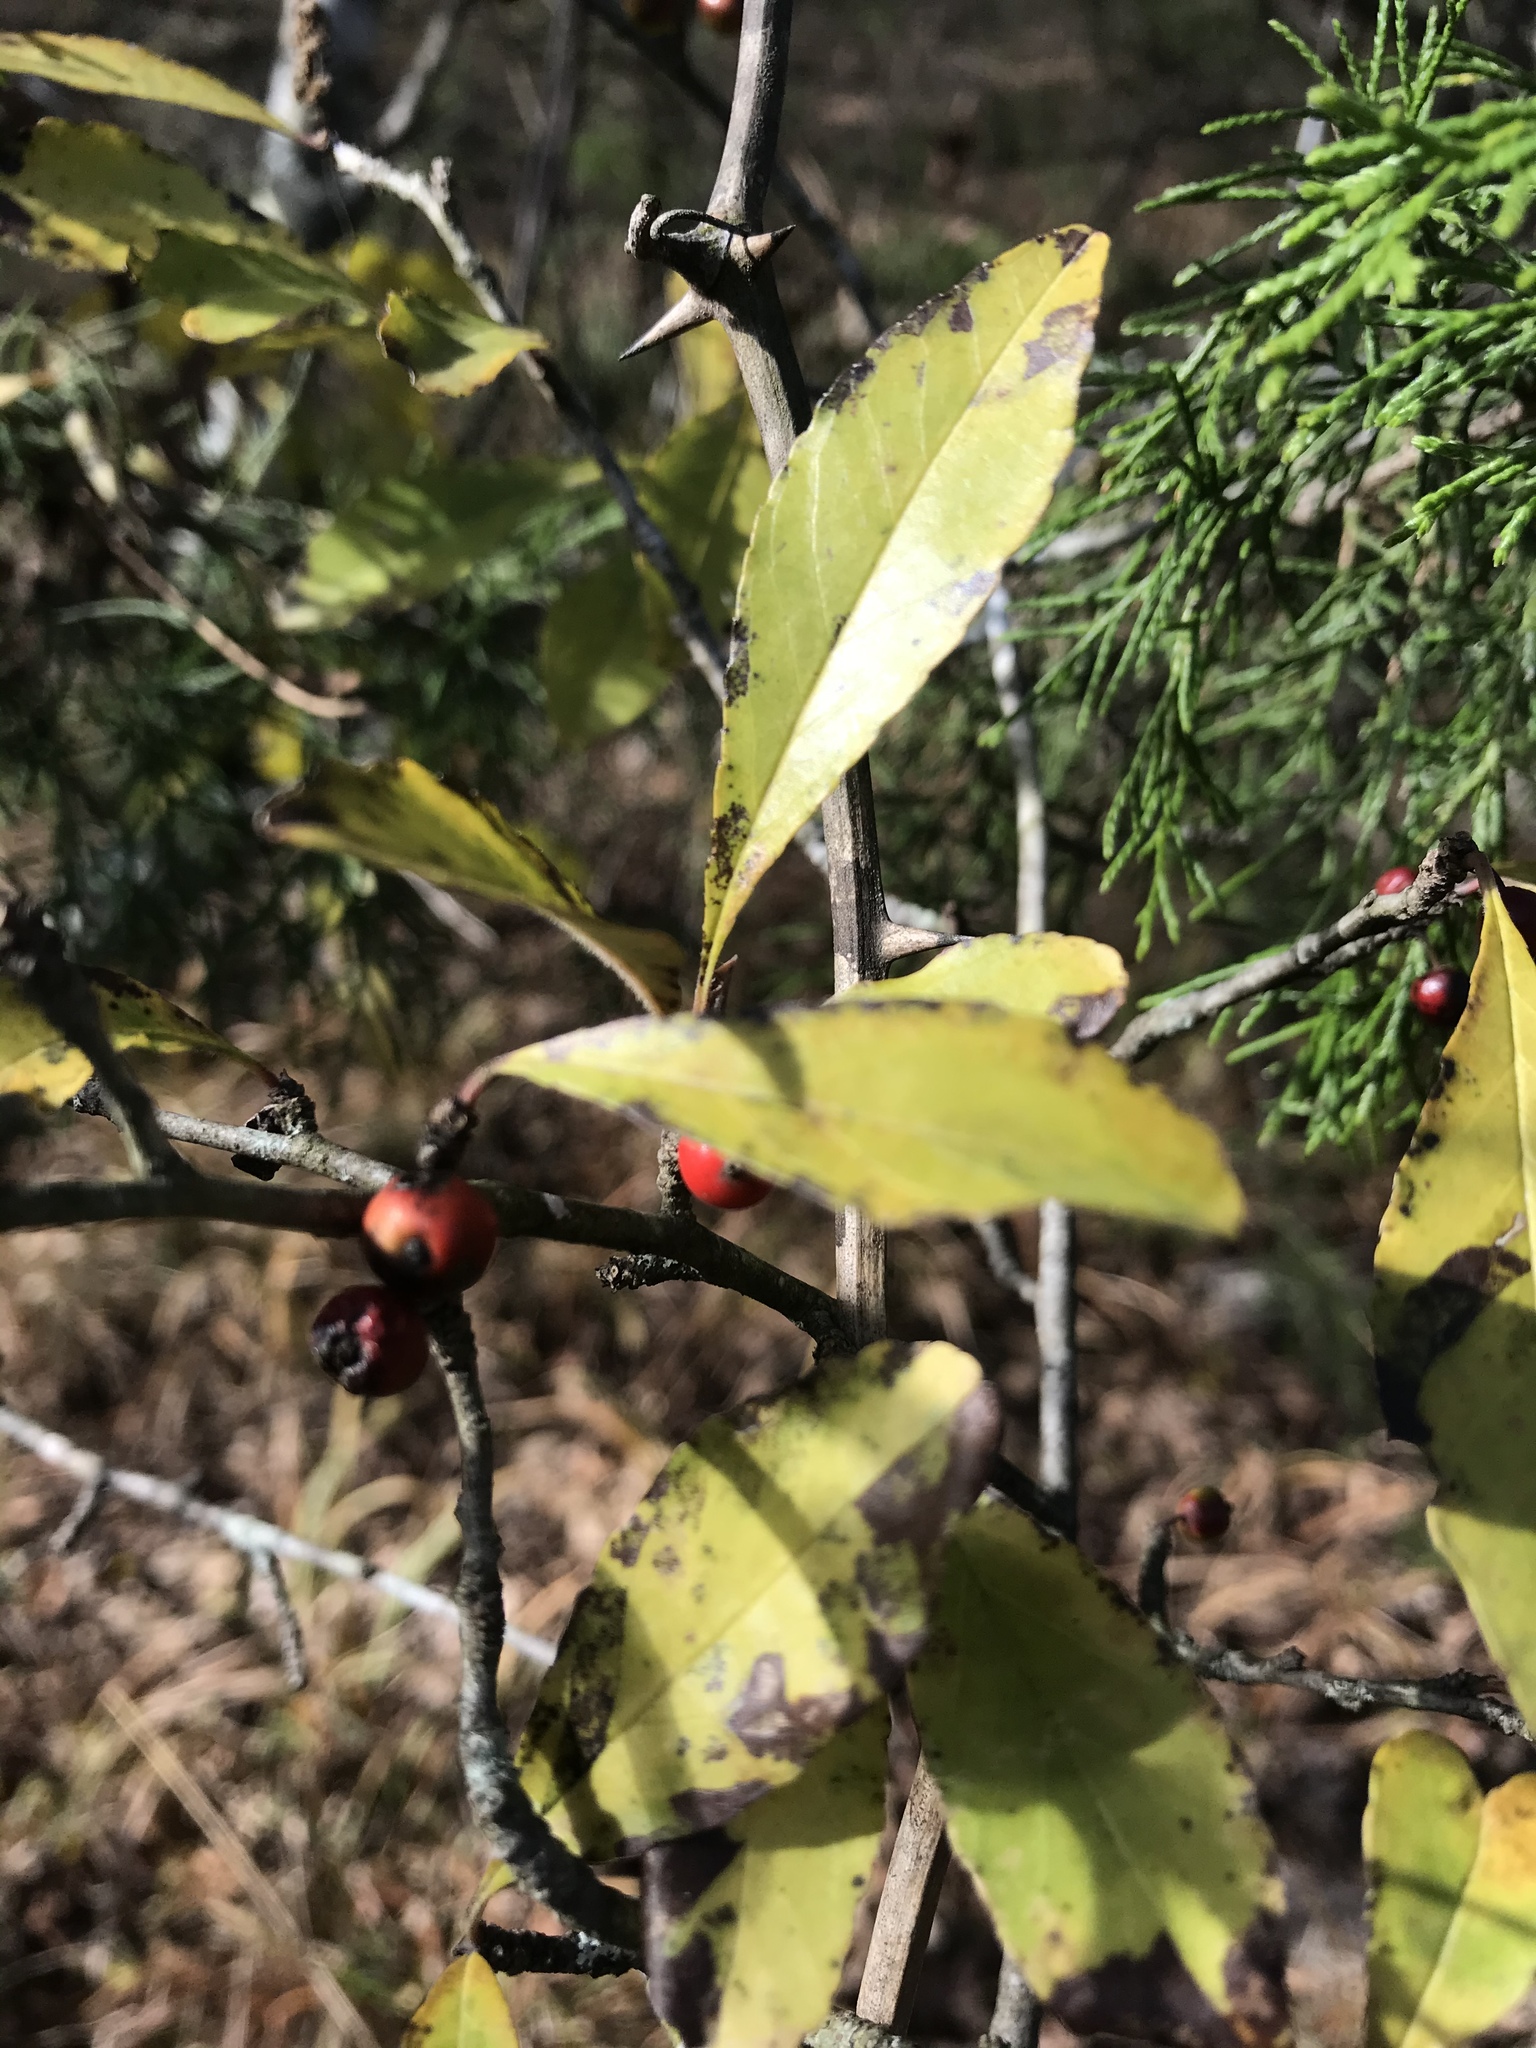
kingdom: Plantae
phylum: Tracheophyta
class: Magnoliopsida
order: Aquifoliales
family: Aquifoliaceae
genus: Ilex
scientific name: Ilex decidua
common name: Possum-haw
